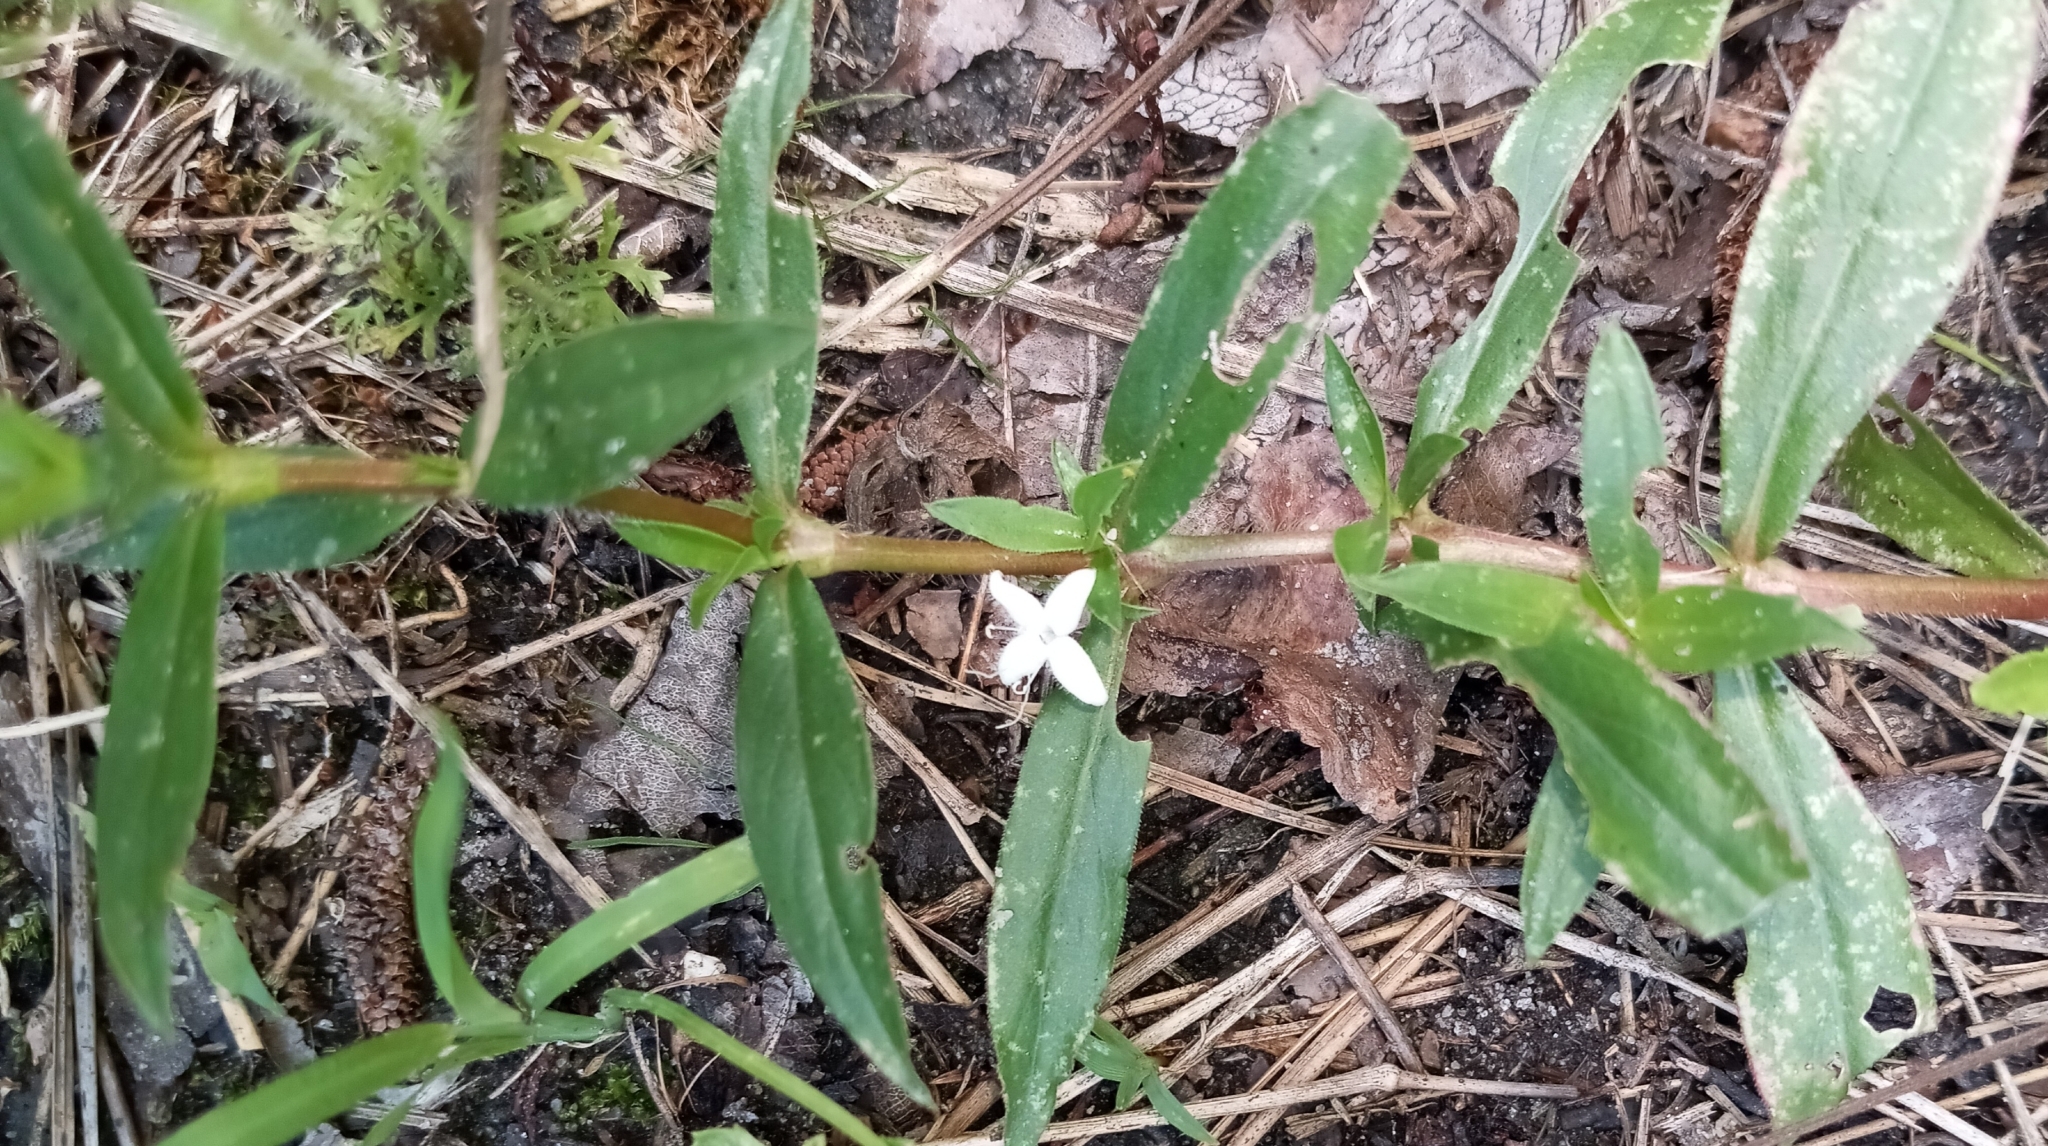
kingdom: Plantae
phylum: Tracheophyta
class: Magnoliopsida
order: Gentianales
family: Rubiaceae
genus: Diodia
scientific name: Diodia virginiana
